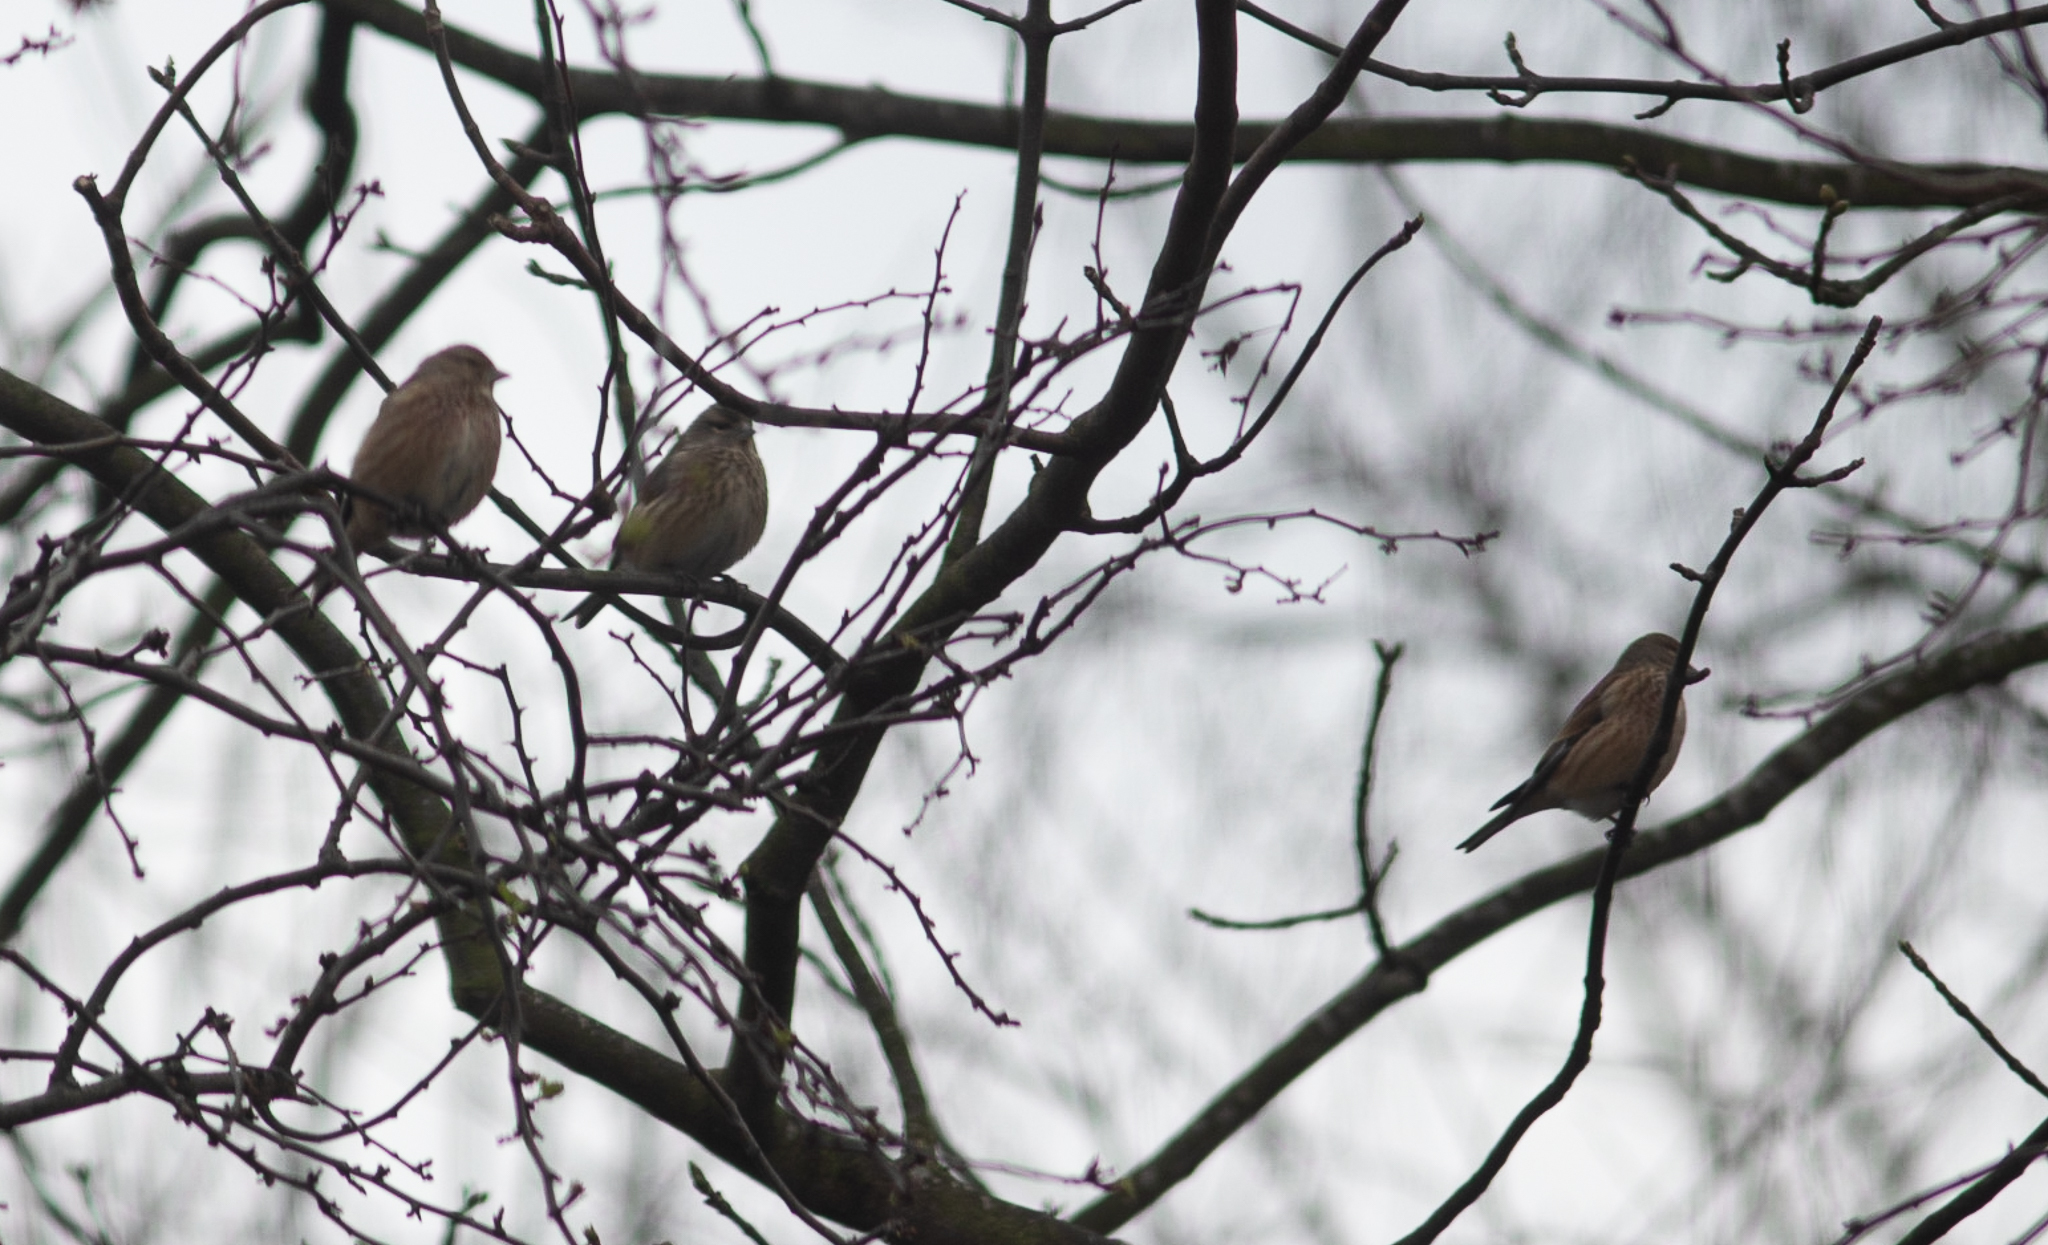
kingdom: Animalia
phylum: Chordata
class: Aves
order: Passeriformes
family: Fringillidae
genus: Linaria
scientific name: Linaria cannabina
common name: Common linnet
